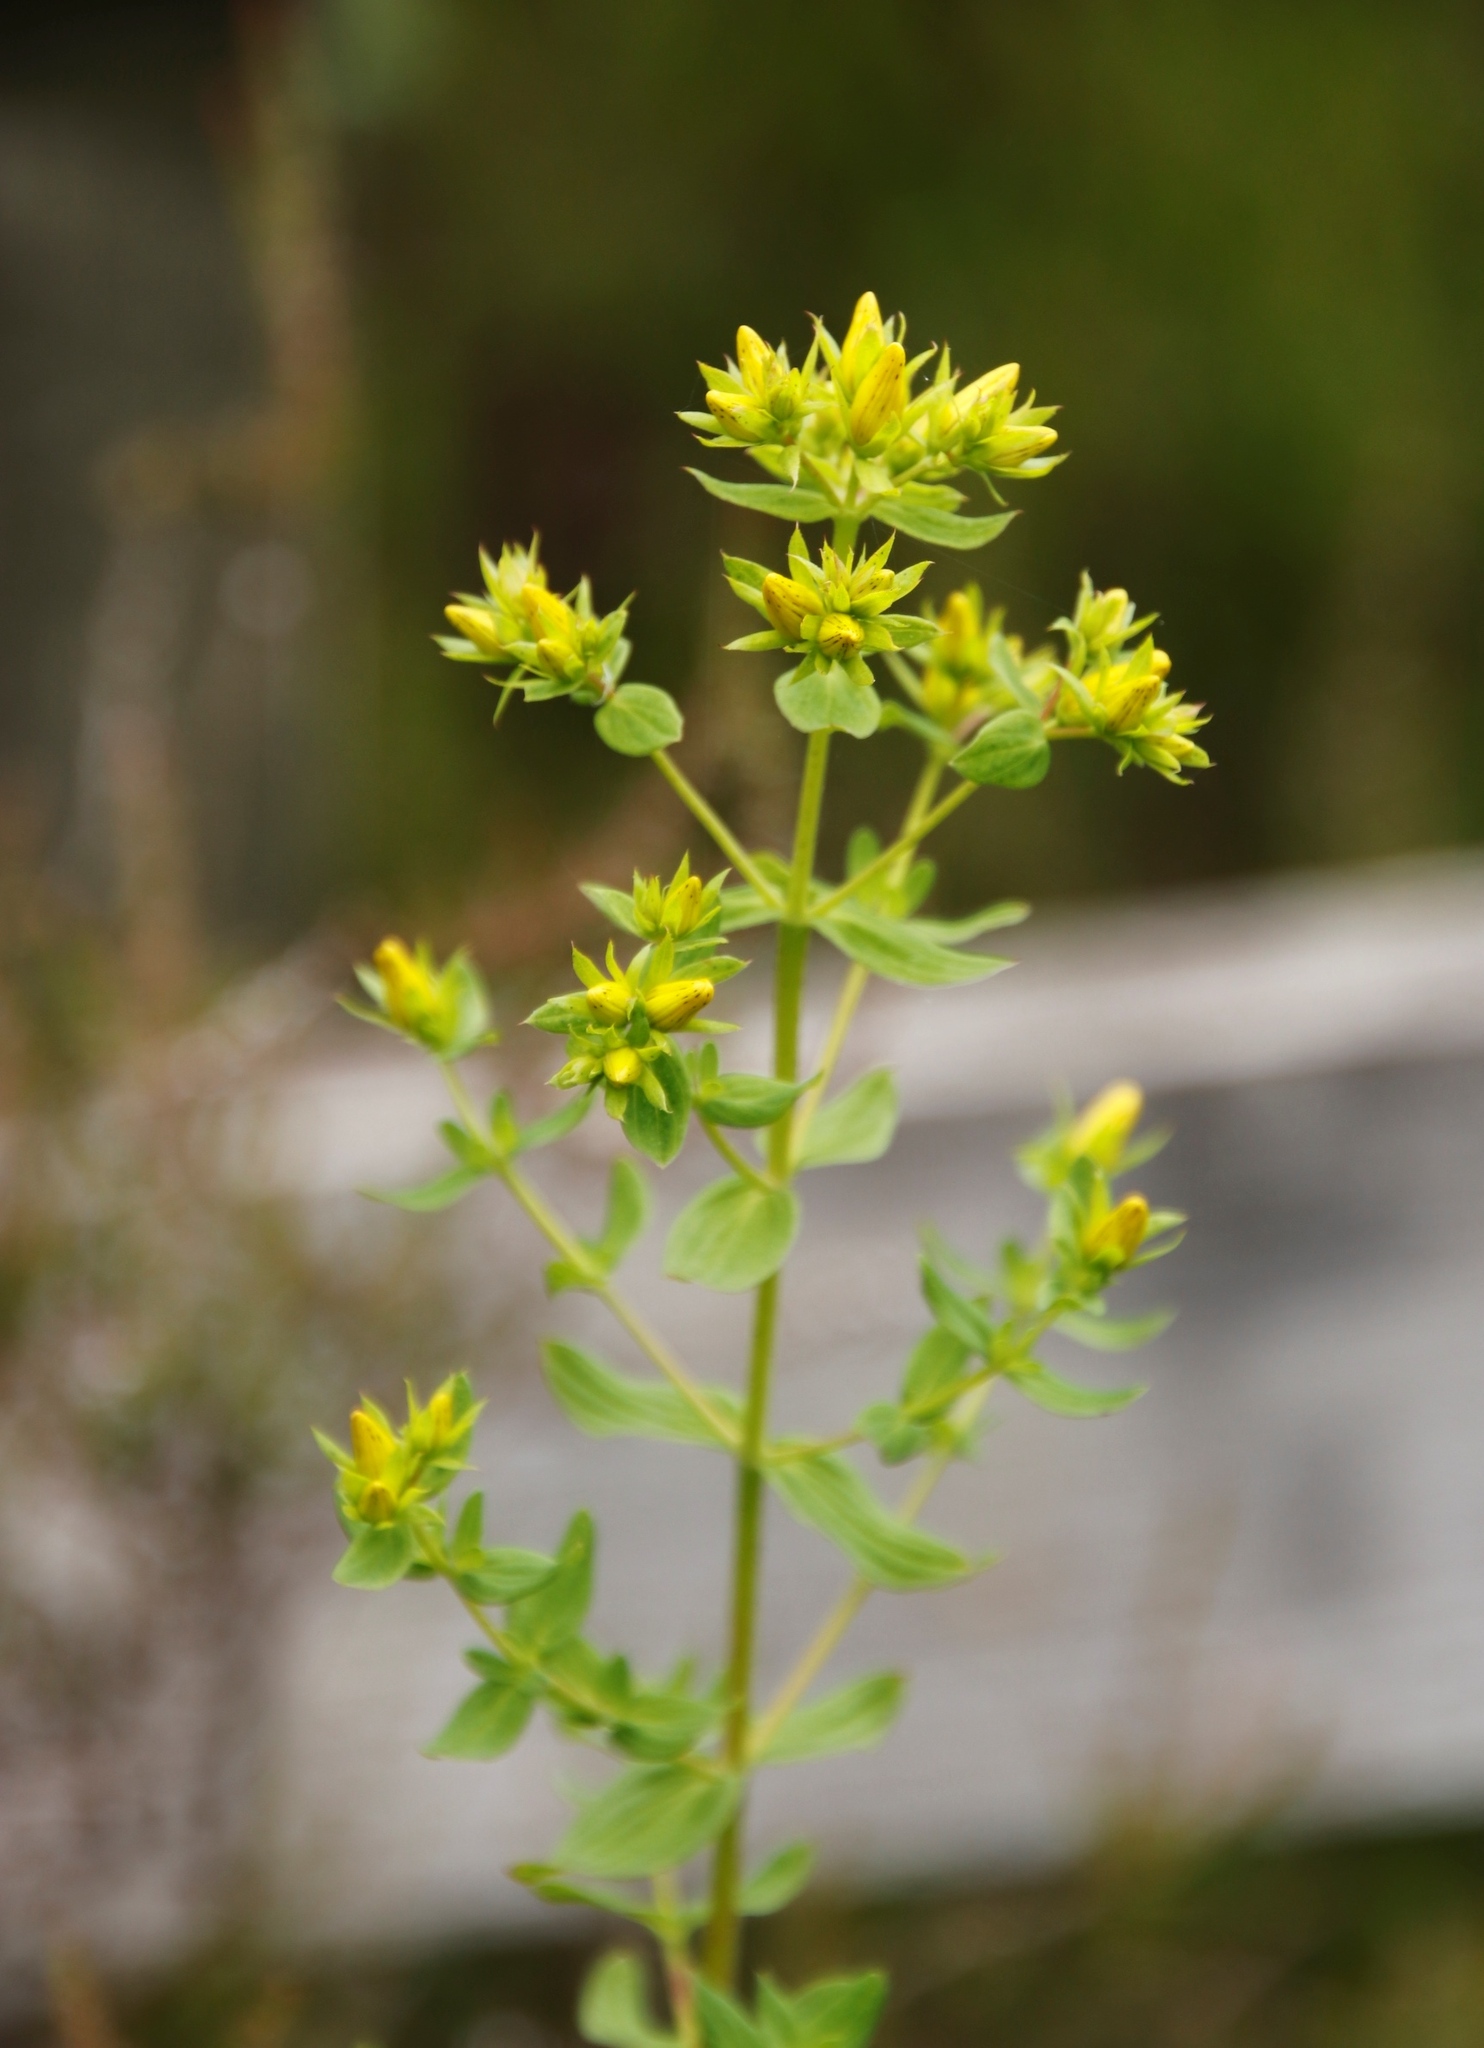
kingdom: Plantae
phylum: Tracheophyta
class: Magnoliopsida
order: Malpighiales
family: Hypericaceae
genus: Hypericum
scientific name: Hypericum desetangsii
